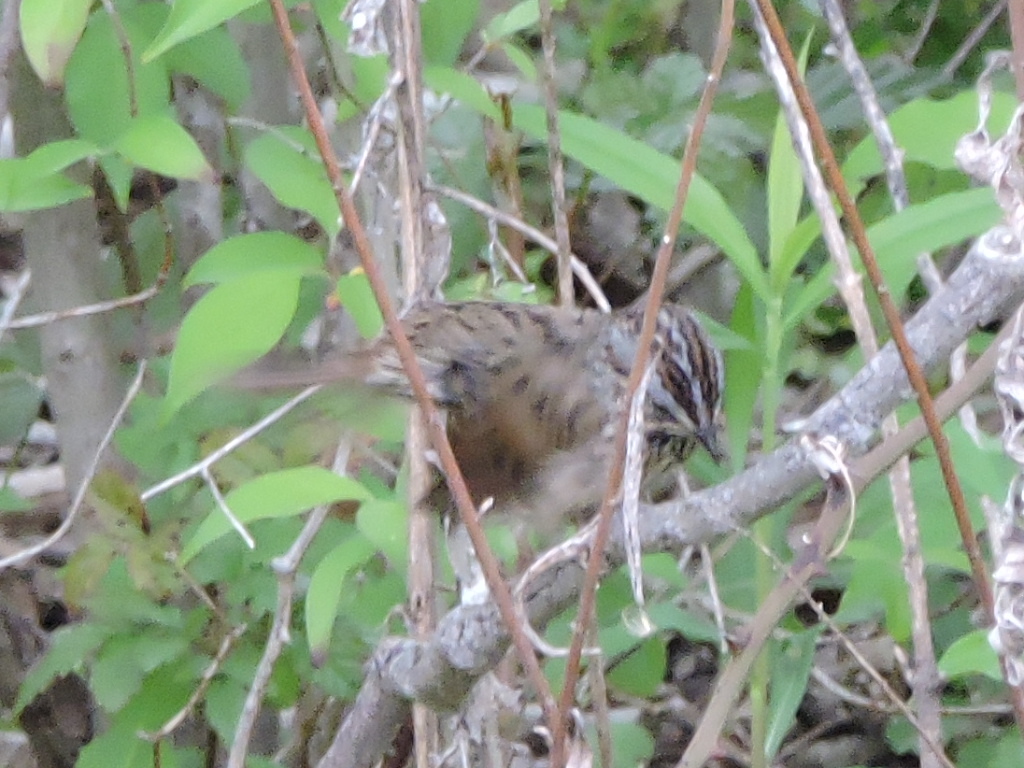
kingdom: Animalia
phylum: Chordata
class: Aves
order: Passeriformes
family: Passerellidae
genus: Melospiza
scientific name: Melospiza georgiana
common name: Swamp sparrow
